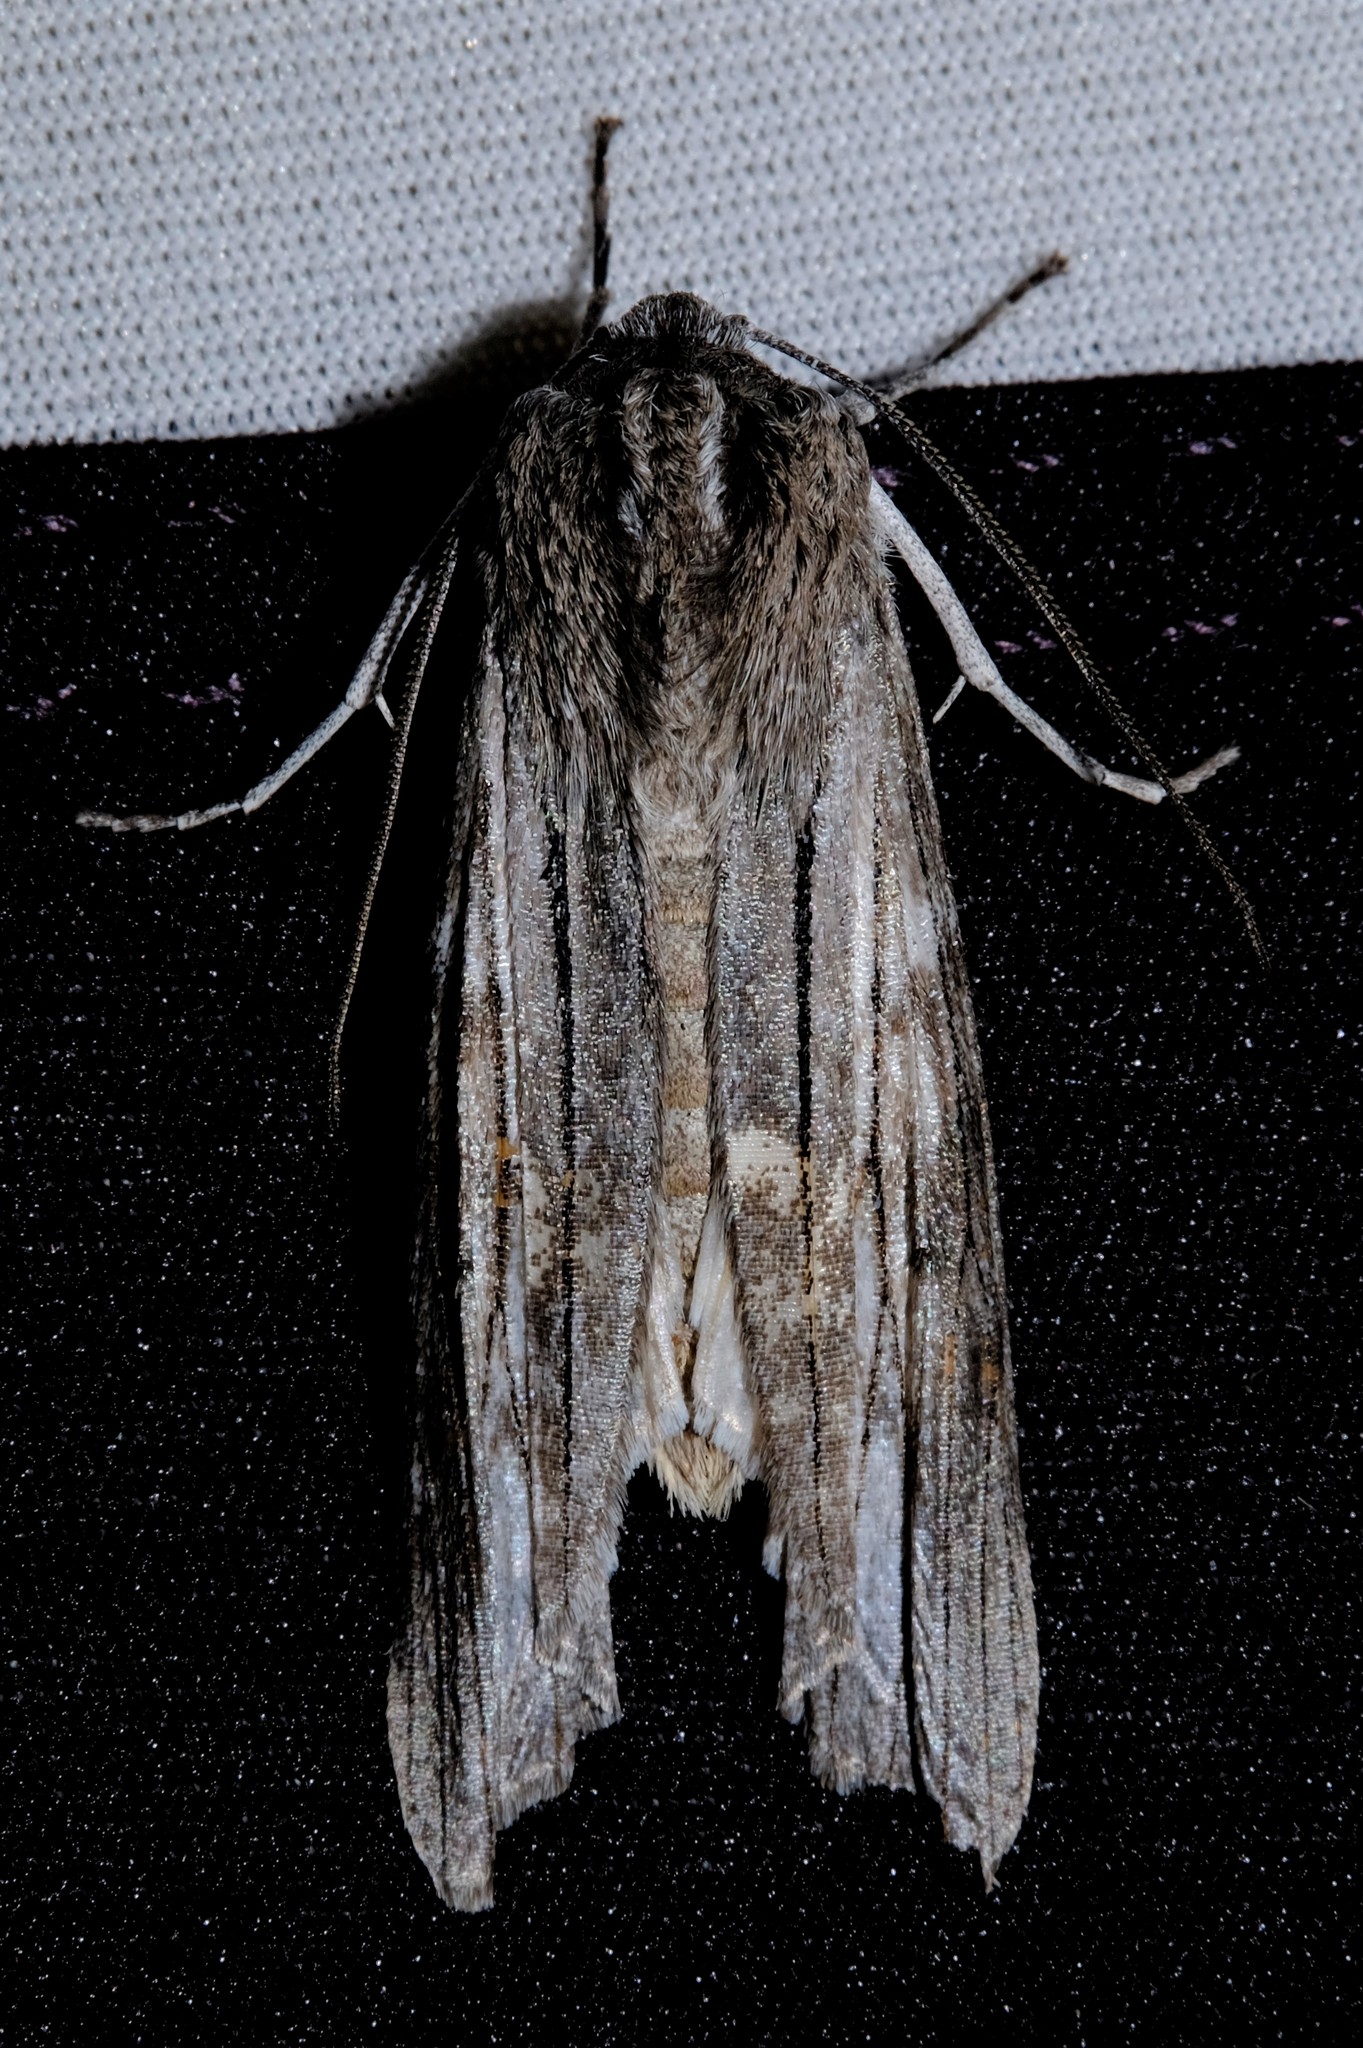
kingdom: Animalia
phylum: Arthropoda
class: Insecta
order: Lepidoptera
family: Geometridae
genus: Capusa
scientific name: Capusa
